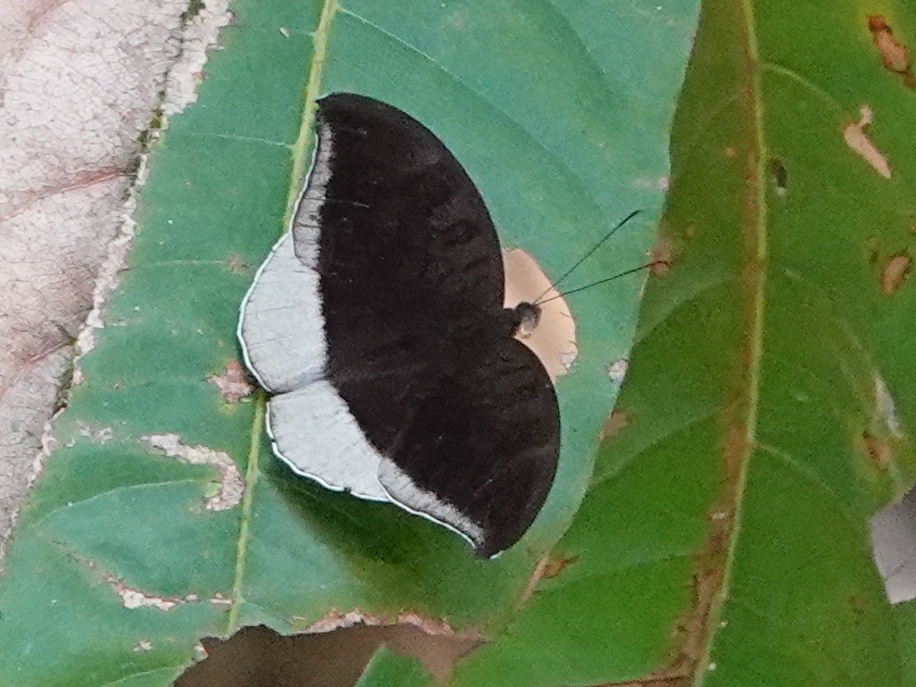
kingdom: Animalia
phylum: Arthropoda
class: Insecta
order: Lepidoptera
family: Nymphalidae
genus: Tanaecia
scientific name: Tanaecia lepidea
